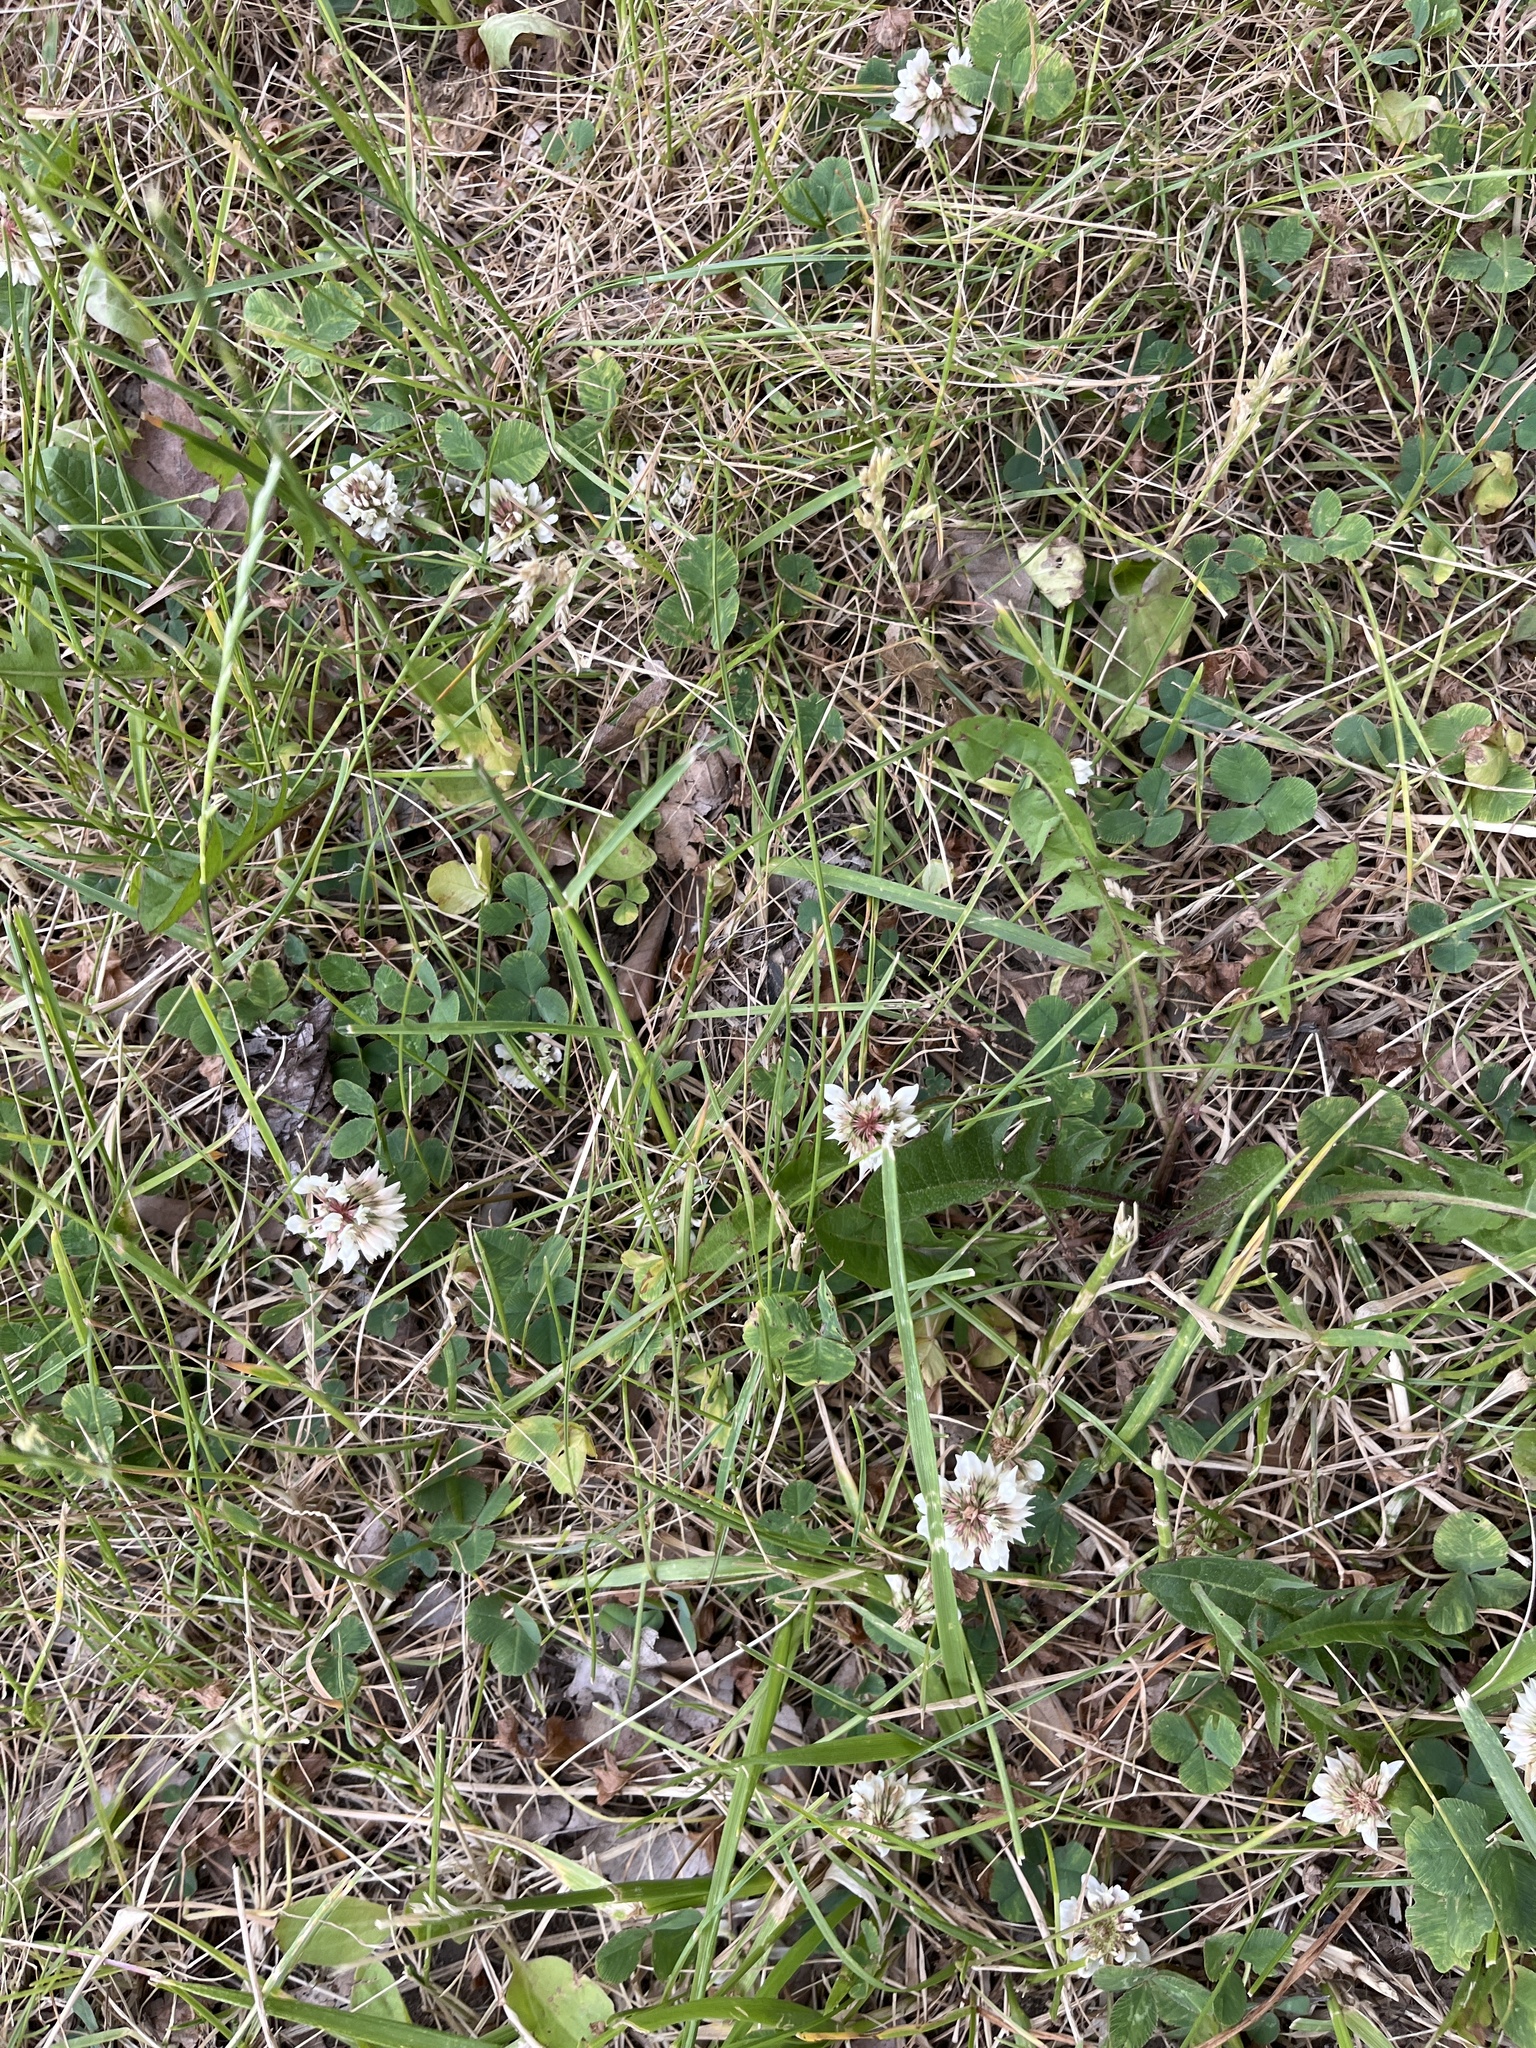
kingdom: Plantae
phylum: Tracheophyta
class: Magnoliopsida
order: Fabales
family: Fabaceae
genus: Trifolium
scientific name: Trifolium repens
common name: White clover
